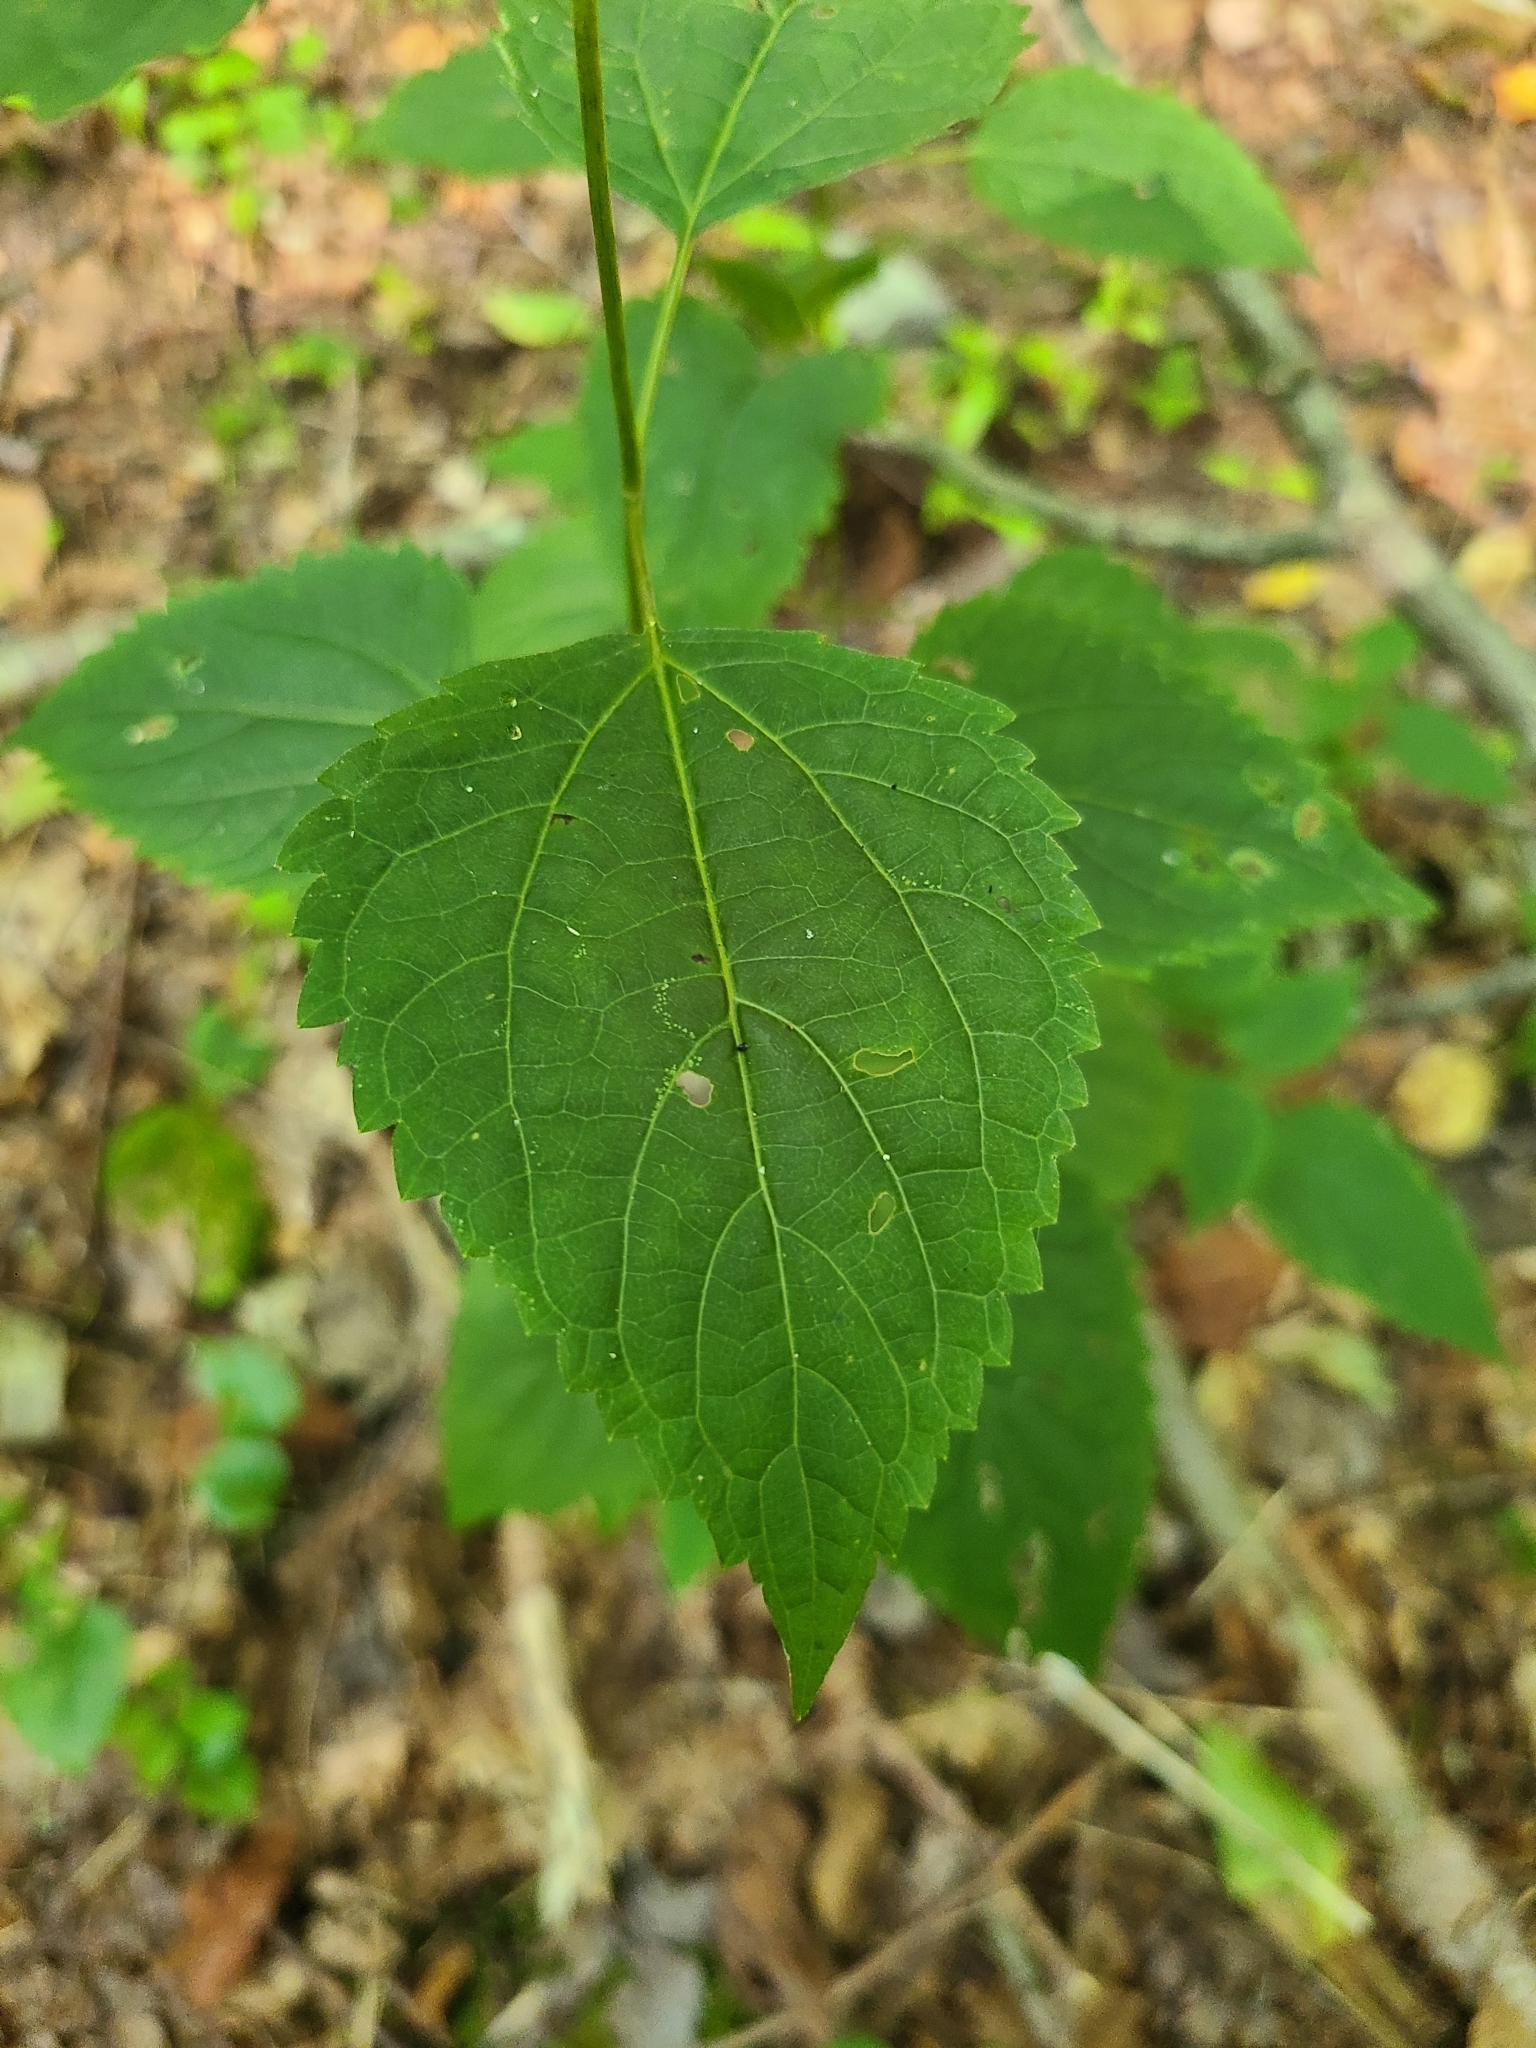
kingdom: Plantae
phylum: Tracheophyta
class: Magnoliopsida
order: Asterales
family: Asteraceae
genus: Ageratina
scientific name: Ageratina altissima
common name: White snakeroot
